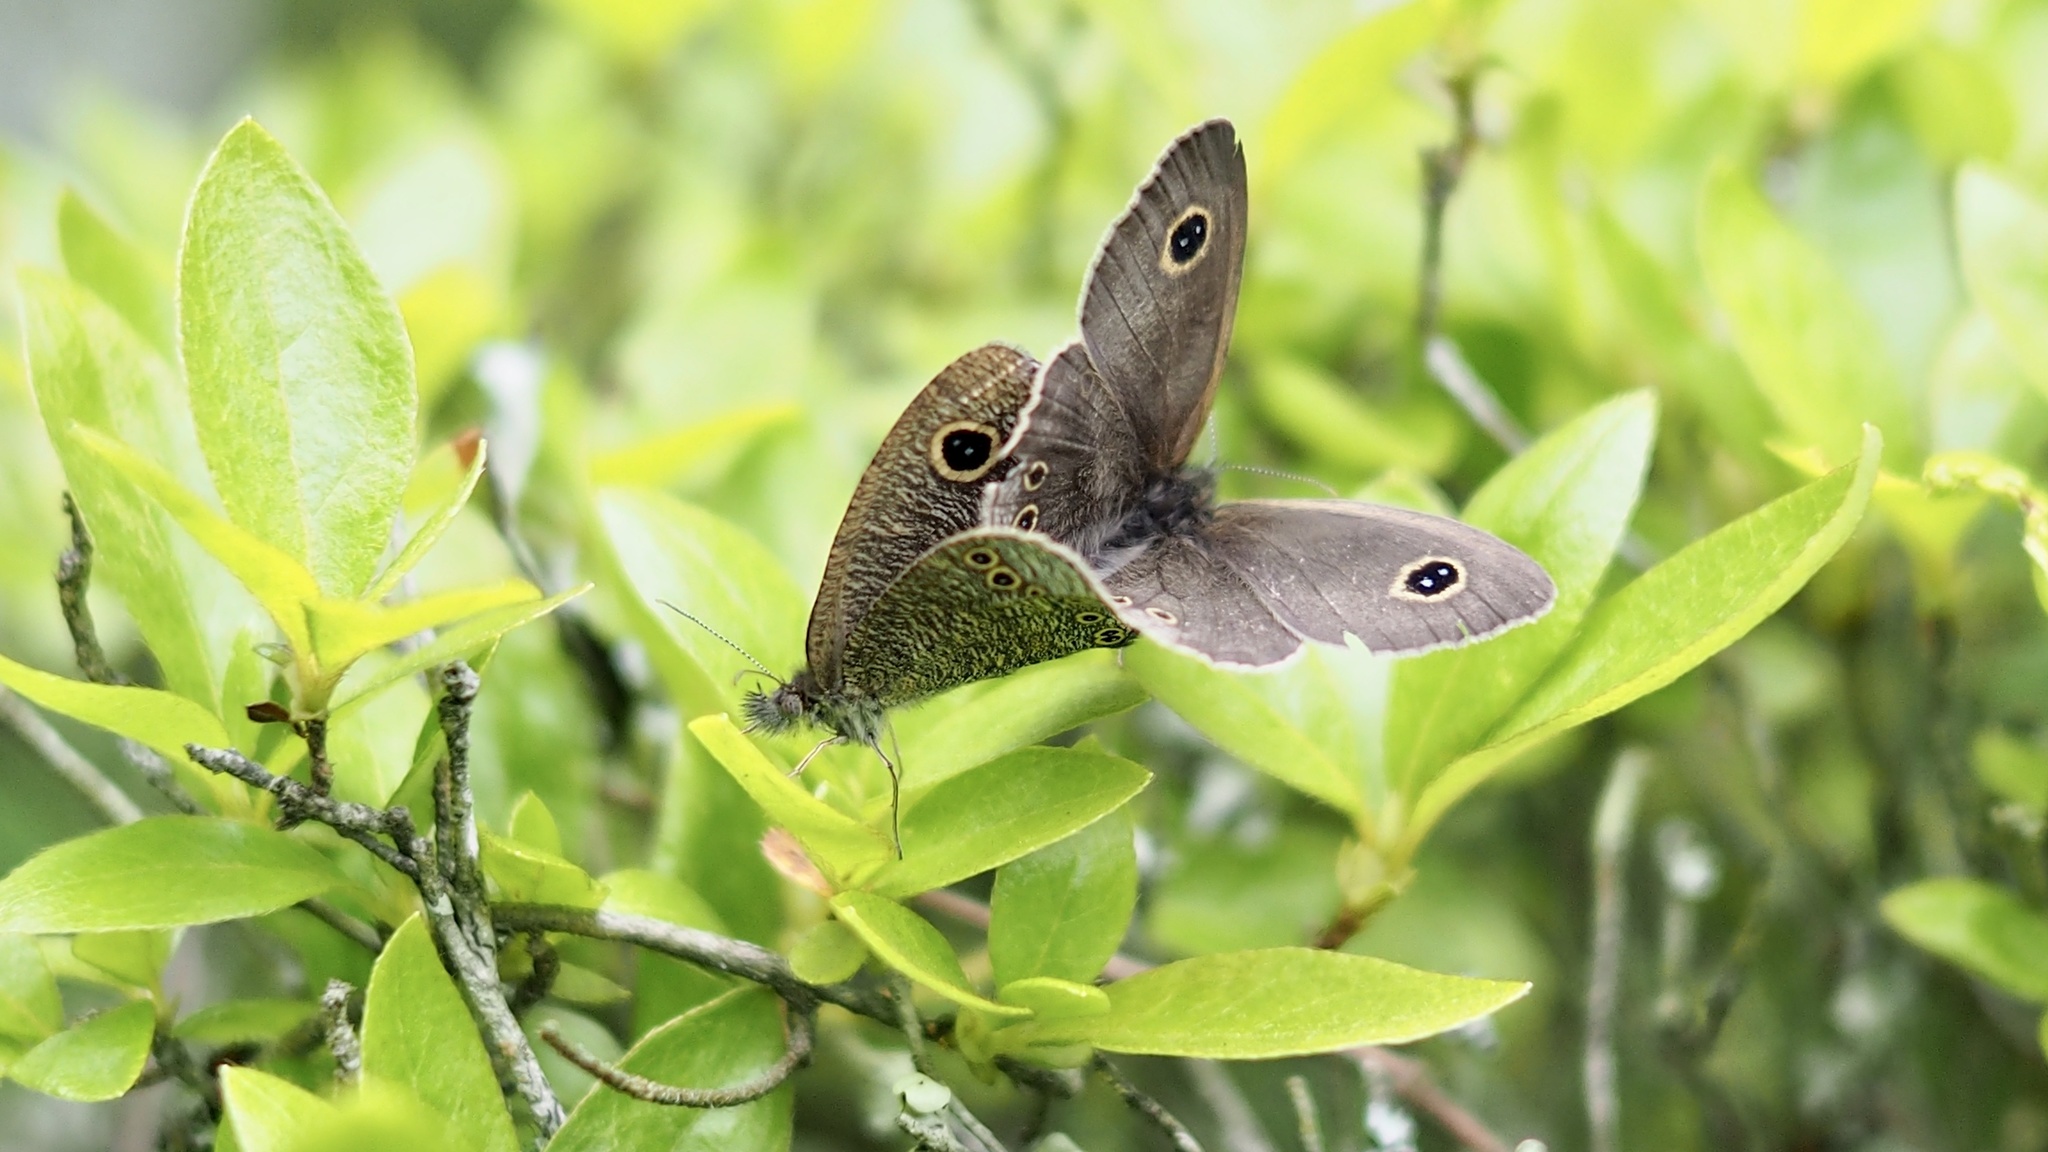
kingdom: Animalia
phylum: Arthropoda
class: Insecta
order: Lepidoptera
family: Nymphalidae
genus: Ypthima
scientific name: Ypthima argus
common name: Common fivering
